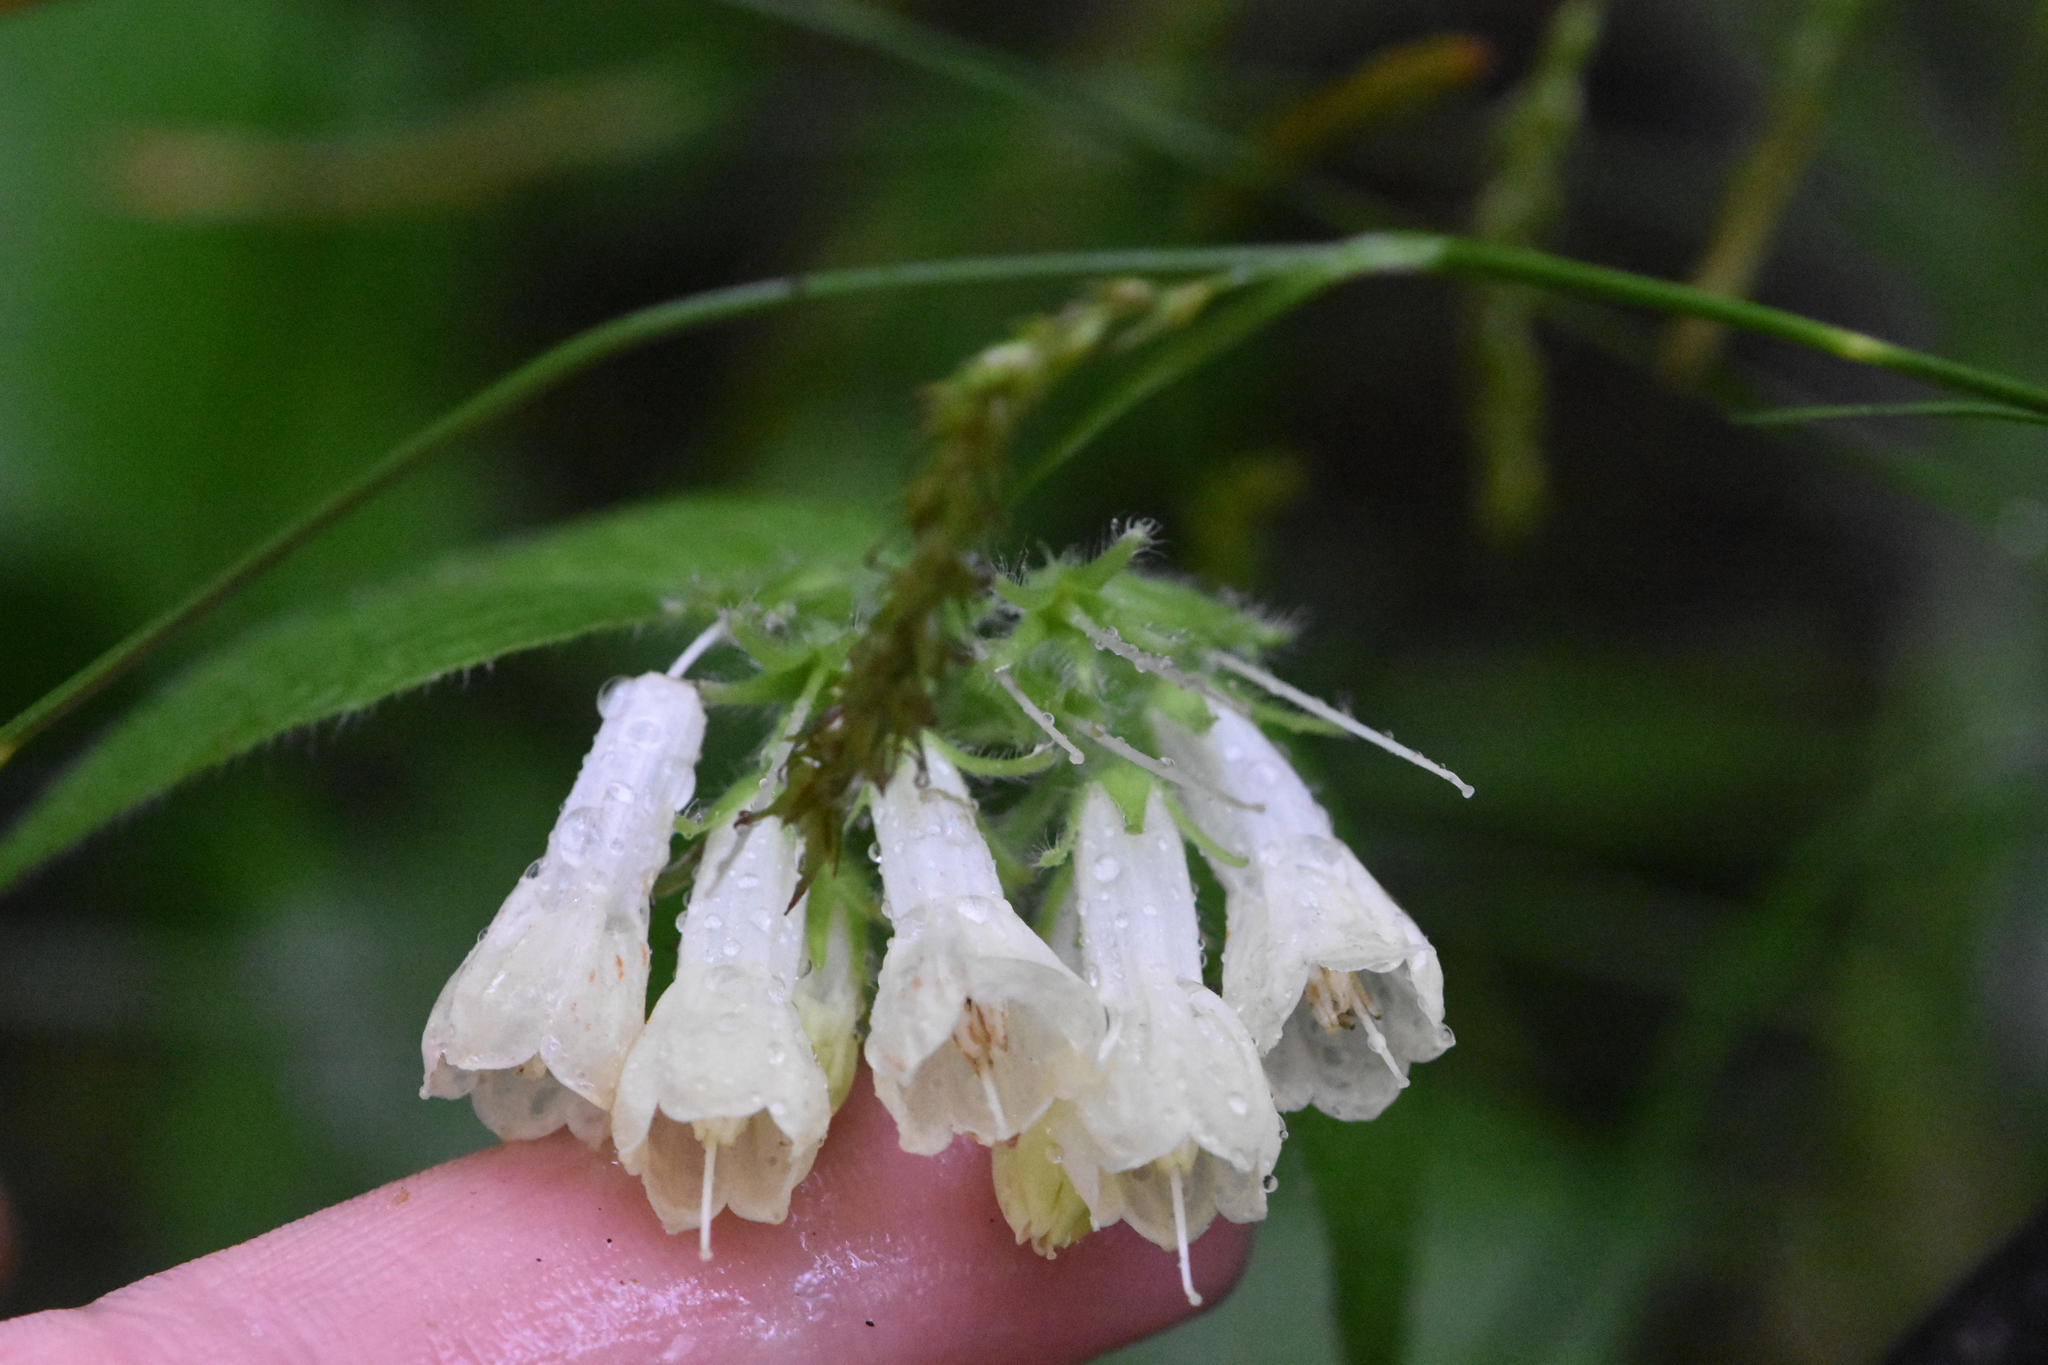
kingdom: Plantae
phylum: Tracheophyta
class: Magnoliopsida
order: Boraginales
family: Boraginaceae
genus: Symphytum
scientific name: Symphytum grandiflorum
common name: Creeping comfrey
